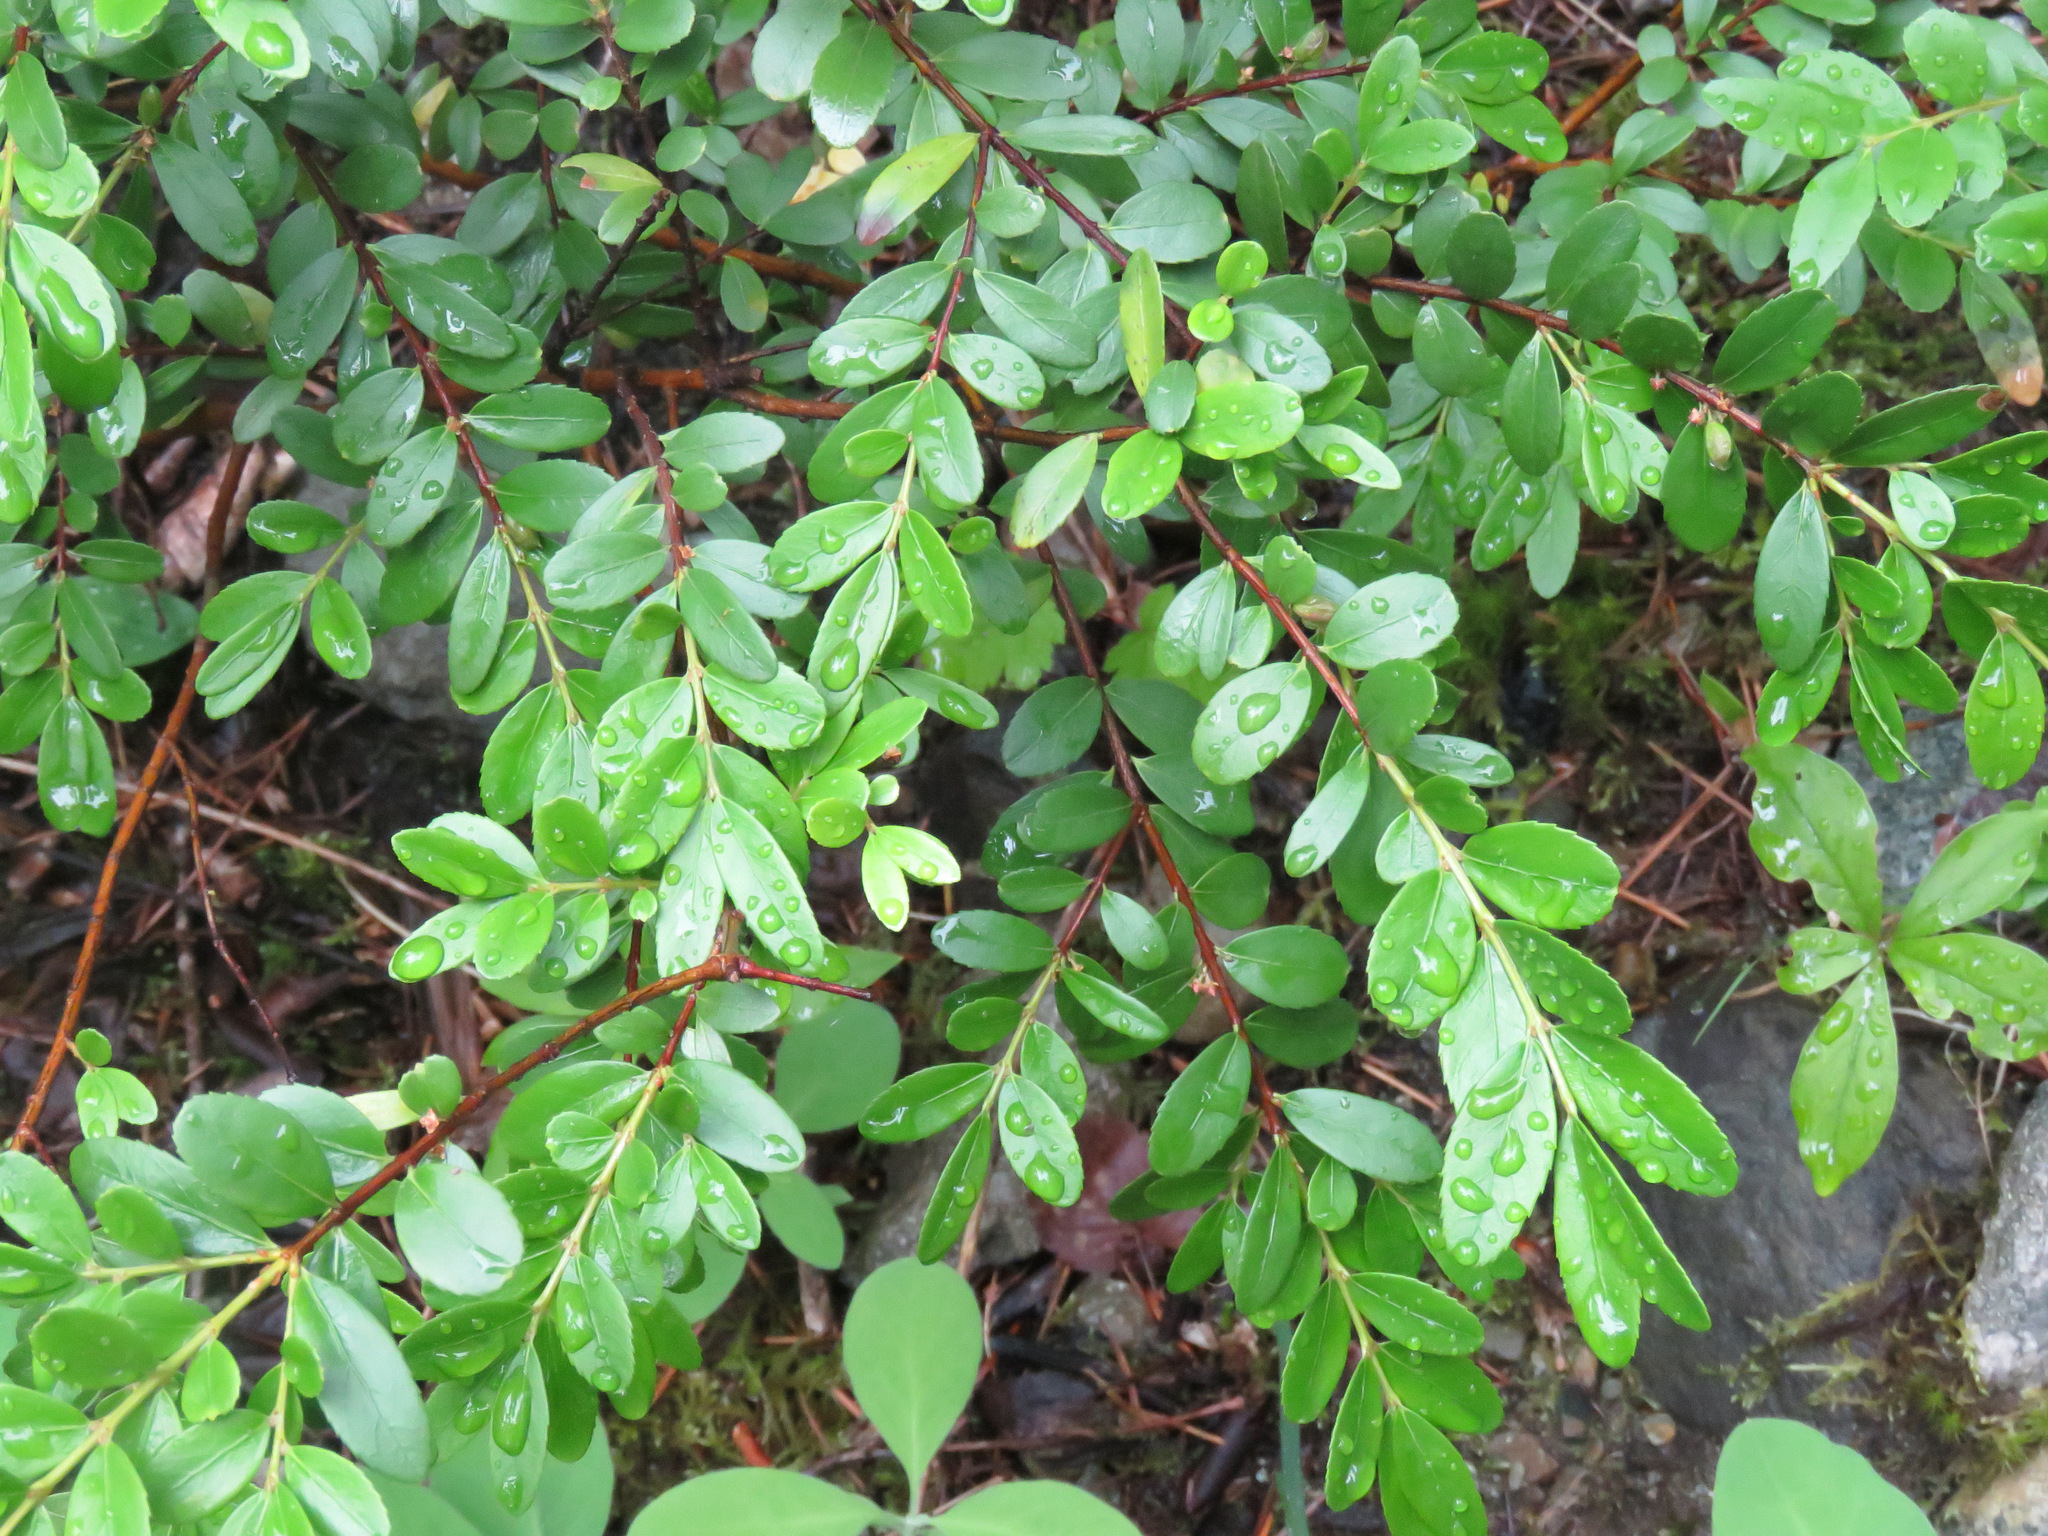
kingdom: Plantae
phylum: Tracheophyta
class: Magnoliopsida
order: Celastrales
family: Celastraceae
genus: Paxistima
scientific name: Paxistima myrsinites
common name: Mountain-lover
